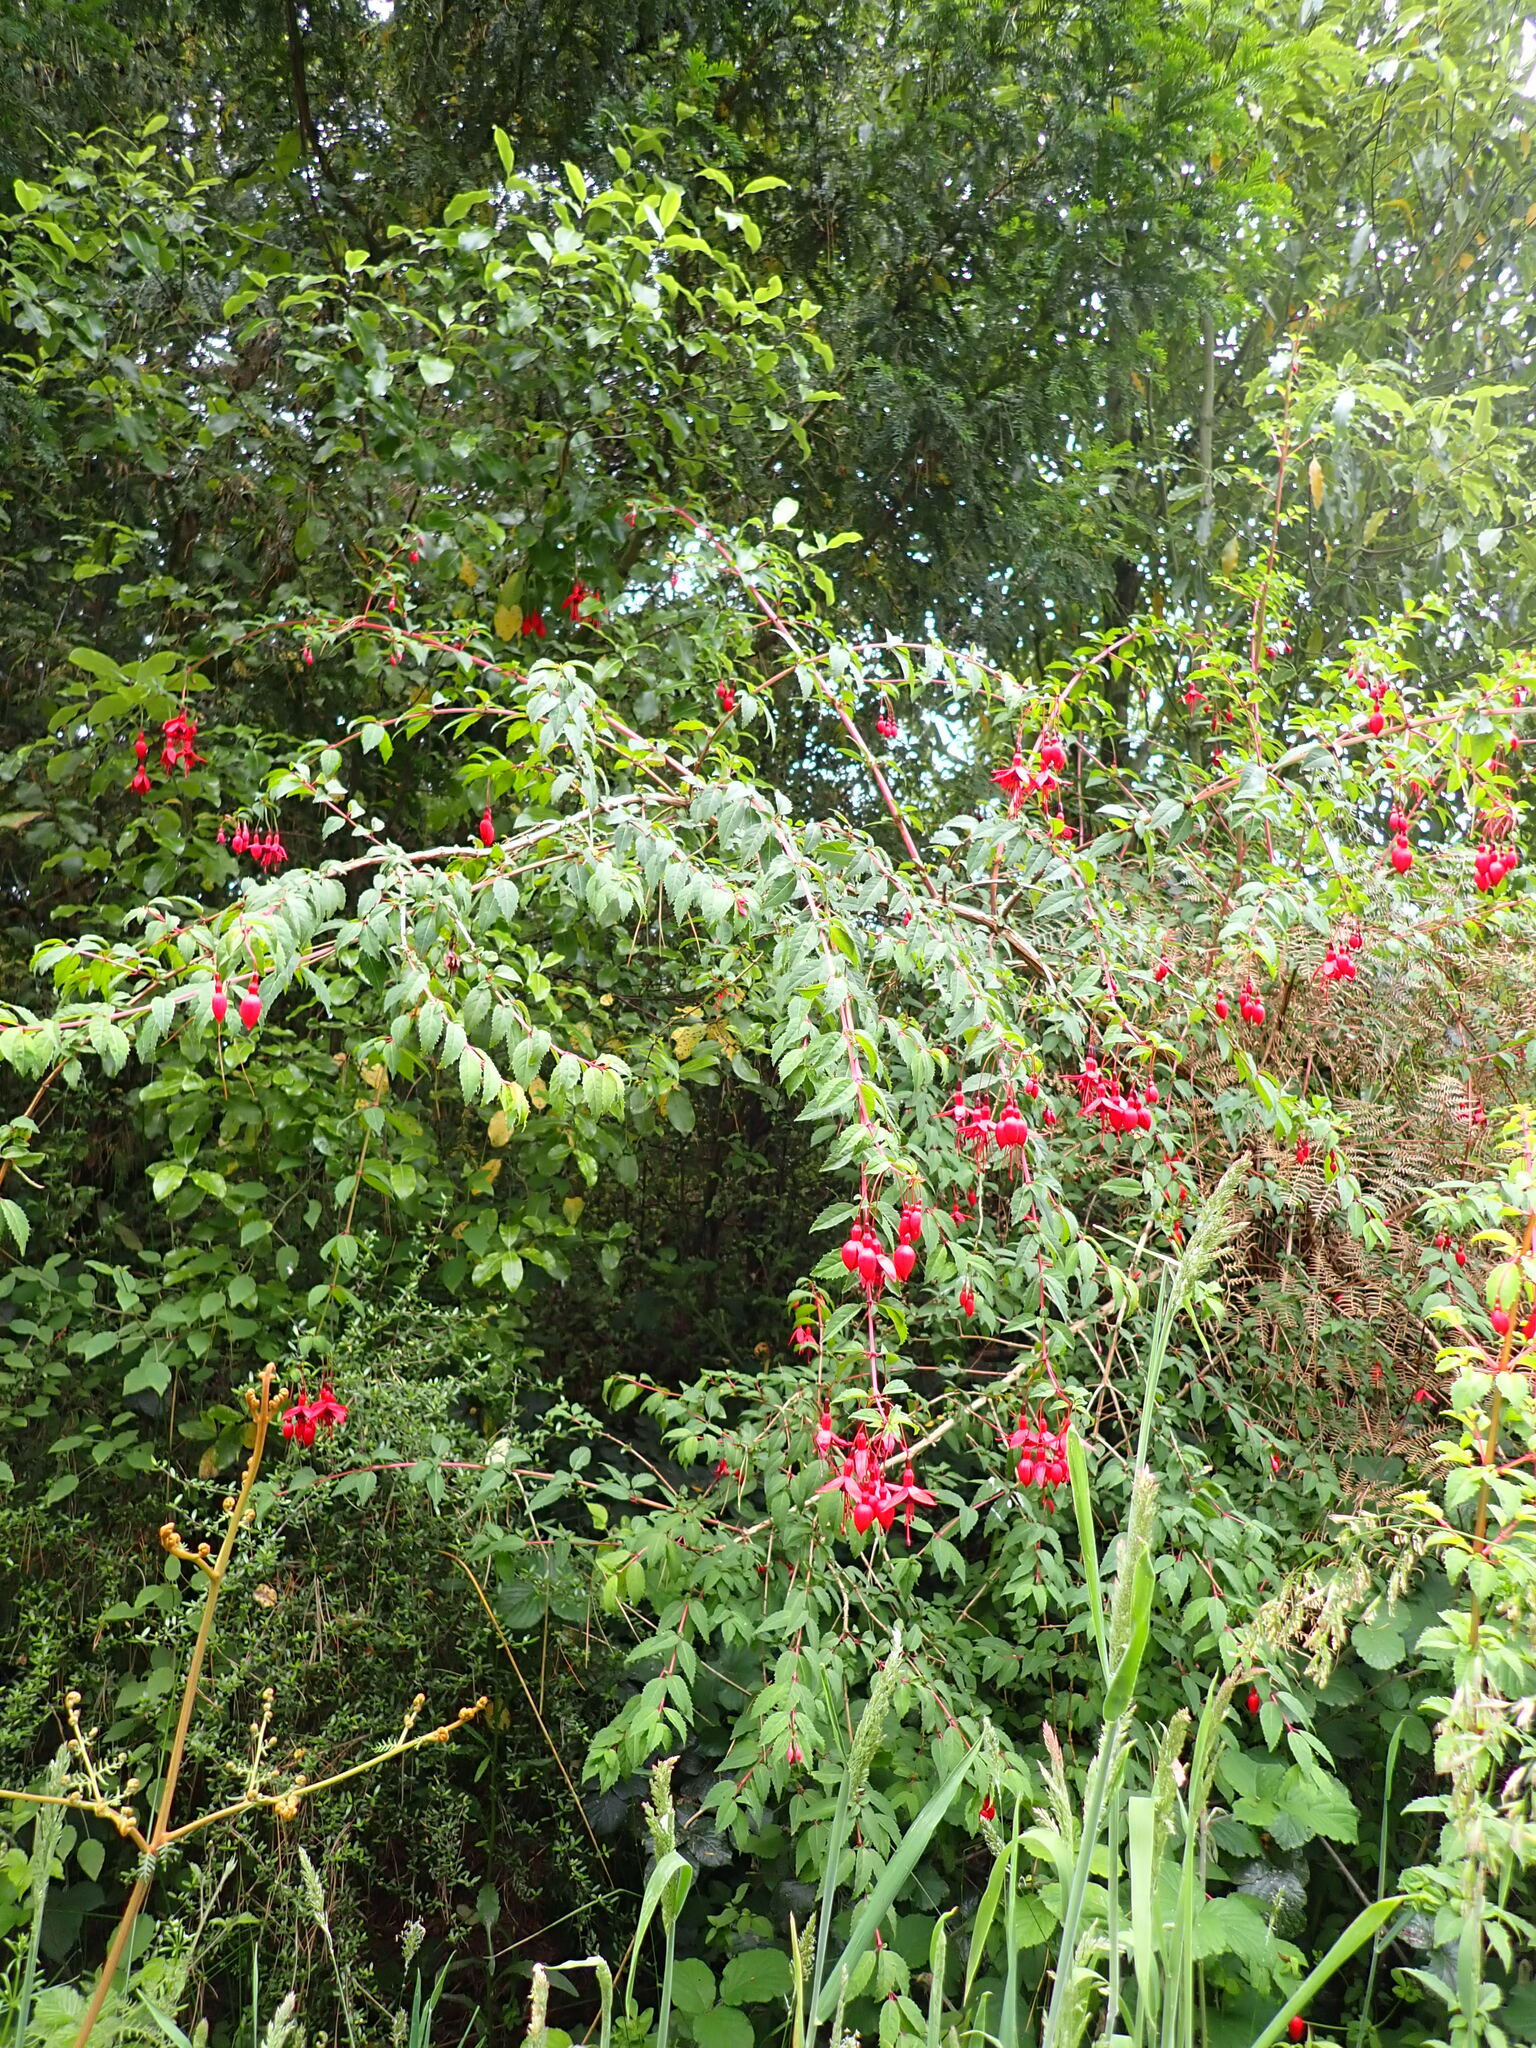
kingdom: Plantae
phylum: Tracheophyta
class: Magnoliopsida
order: Myrtales
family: Onagraceae
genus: Fuchsia
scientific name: Fuchsia magellanica
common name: Hardy fuchsia
